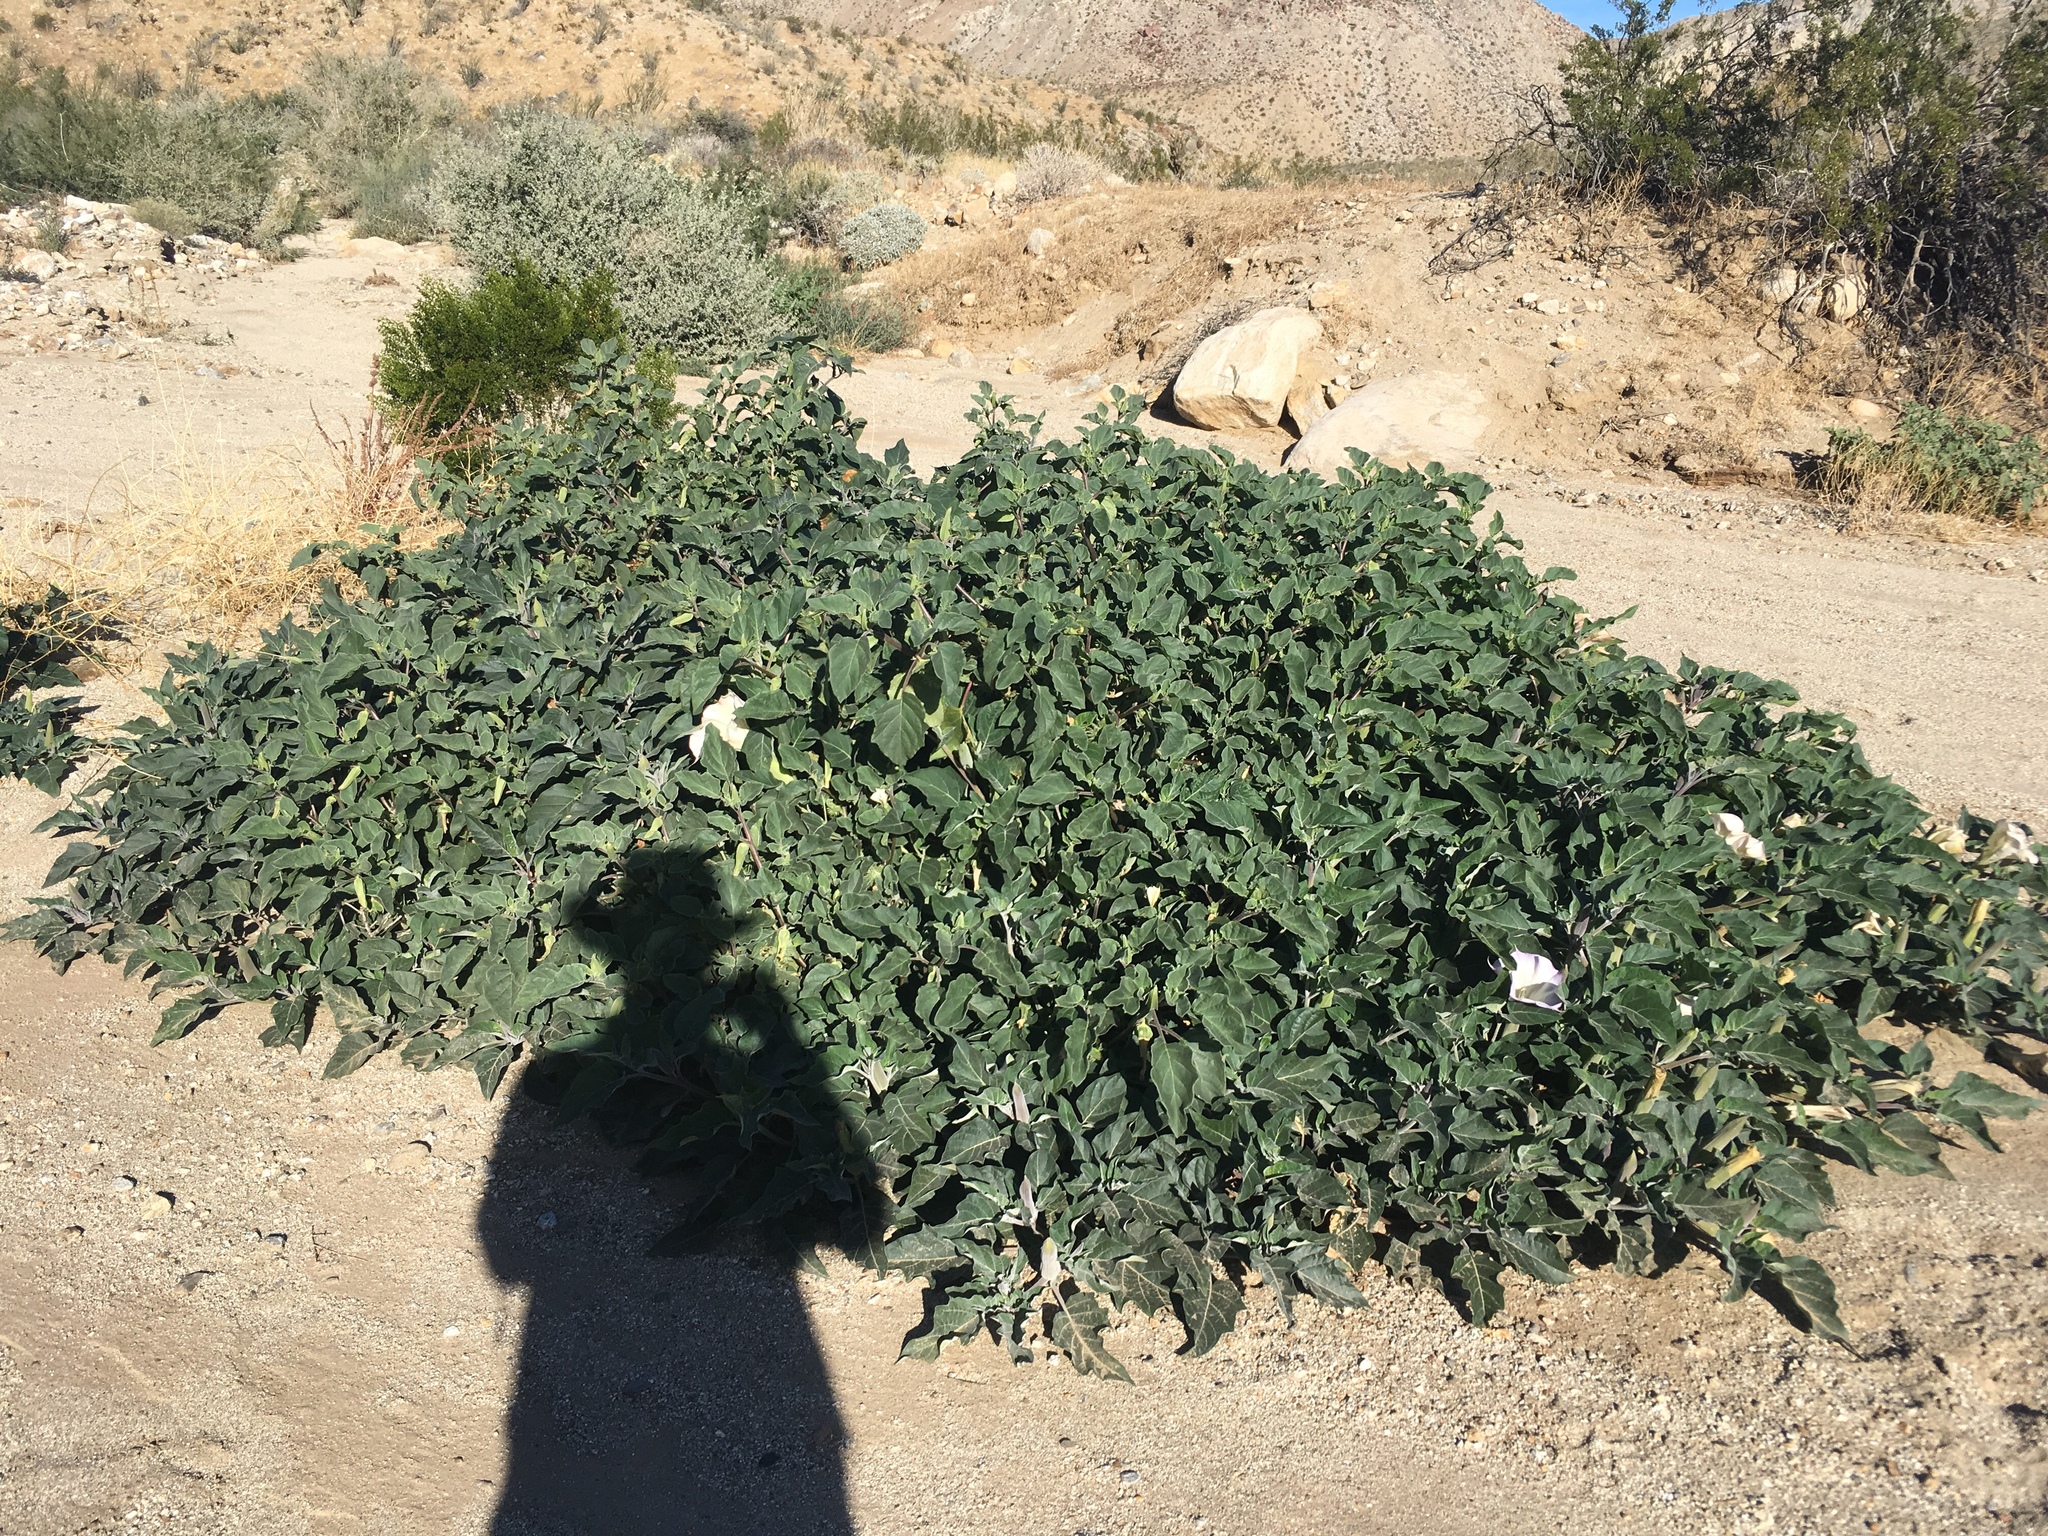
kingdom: Plantae
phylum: Tracheophyta
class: Magnoliopsida
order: Solanales
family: Solanaceae
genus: Datura
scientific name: Datura wrightii
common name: Sacred thorn-apple
